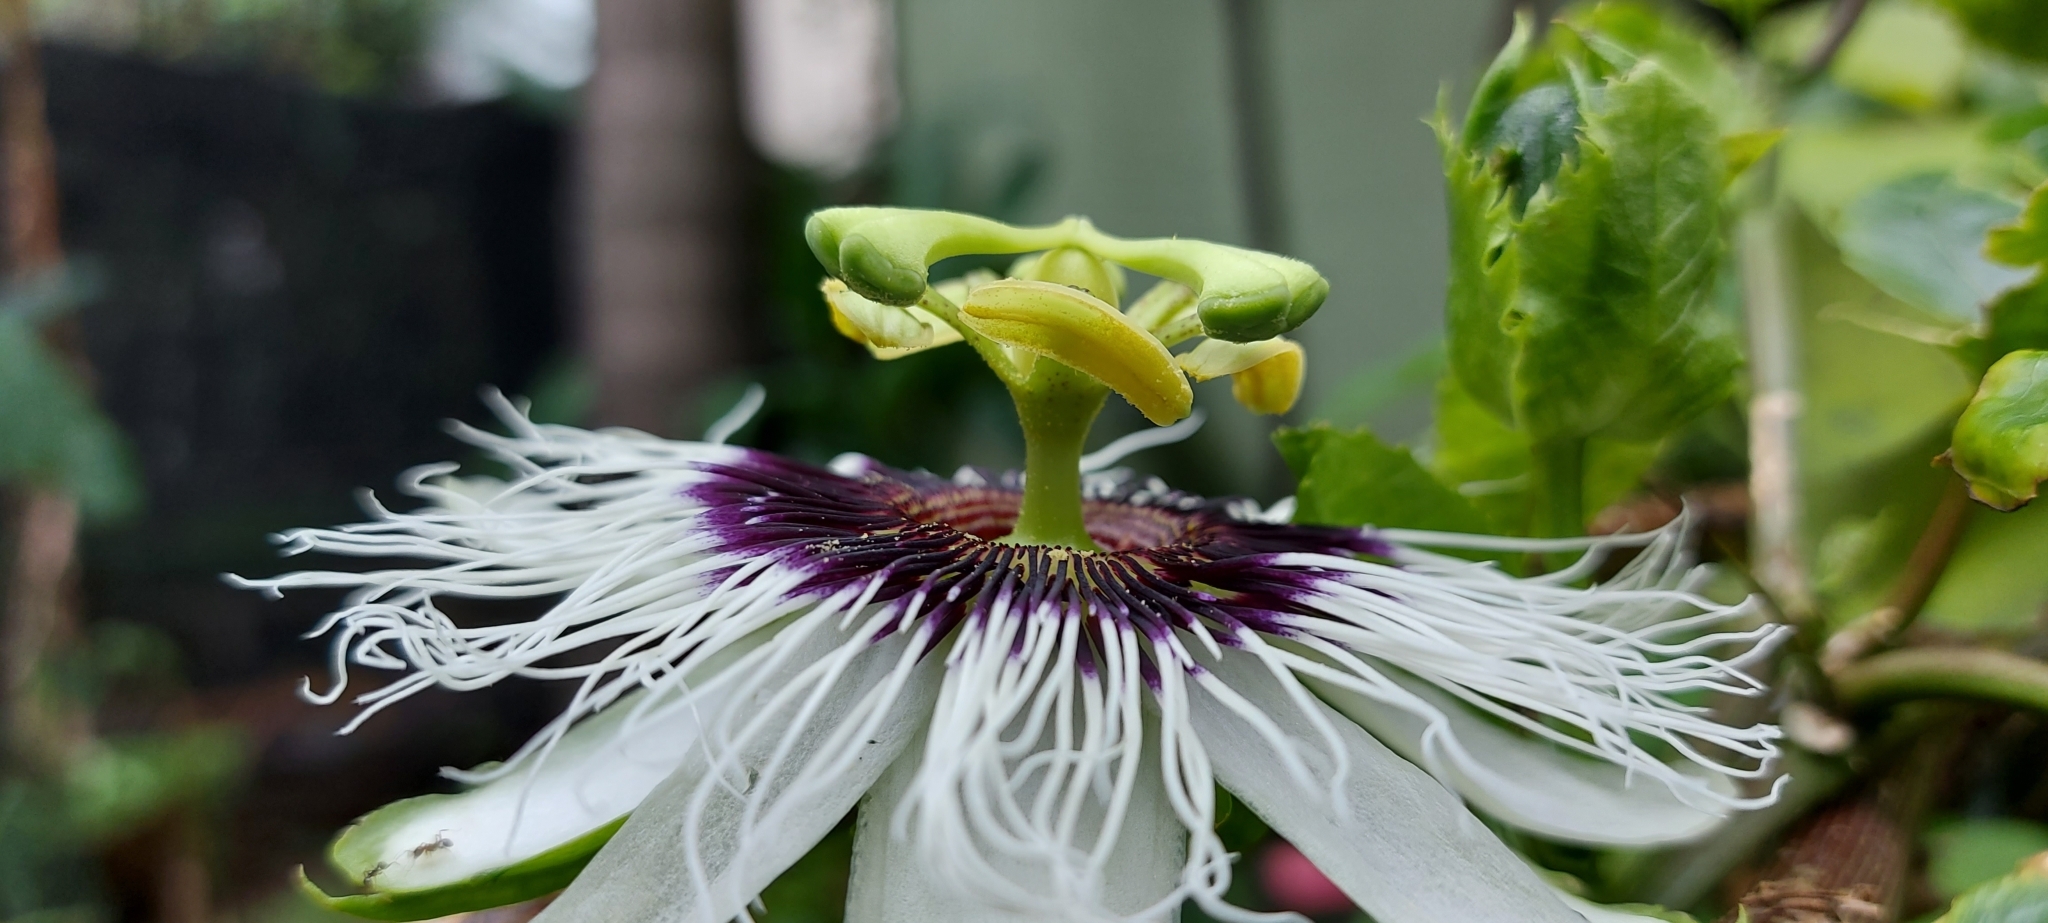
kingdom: Plantae
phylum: Tracheophyta
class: Magnoliopsida
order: Malpighiales
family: Passifloraceae
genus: Passiflora
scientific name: Passiflora edulis
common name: Purple granadilla
